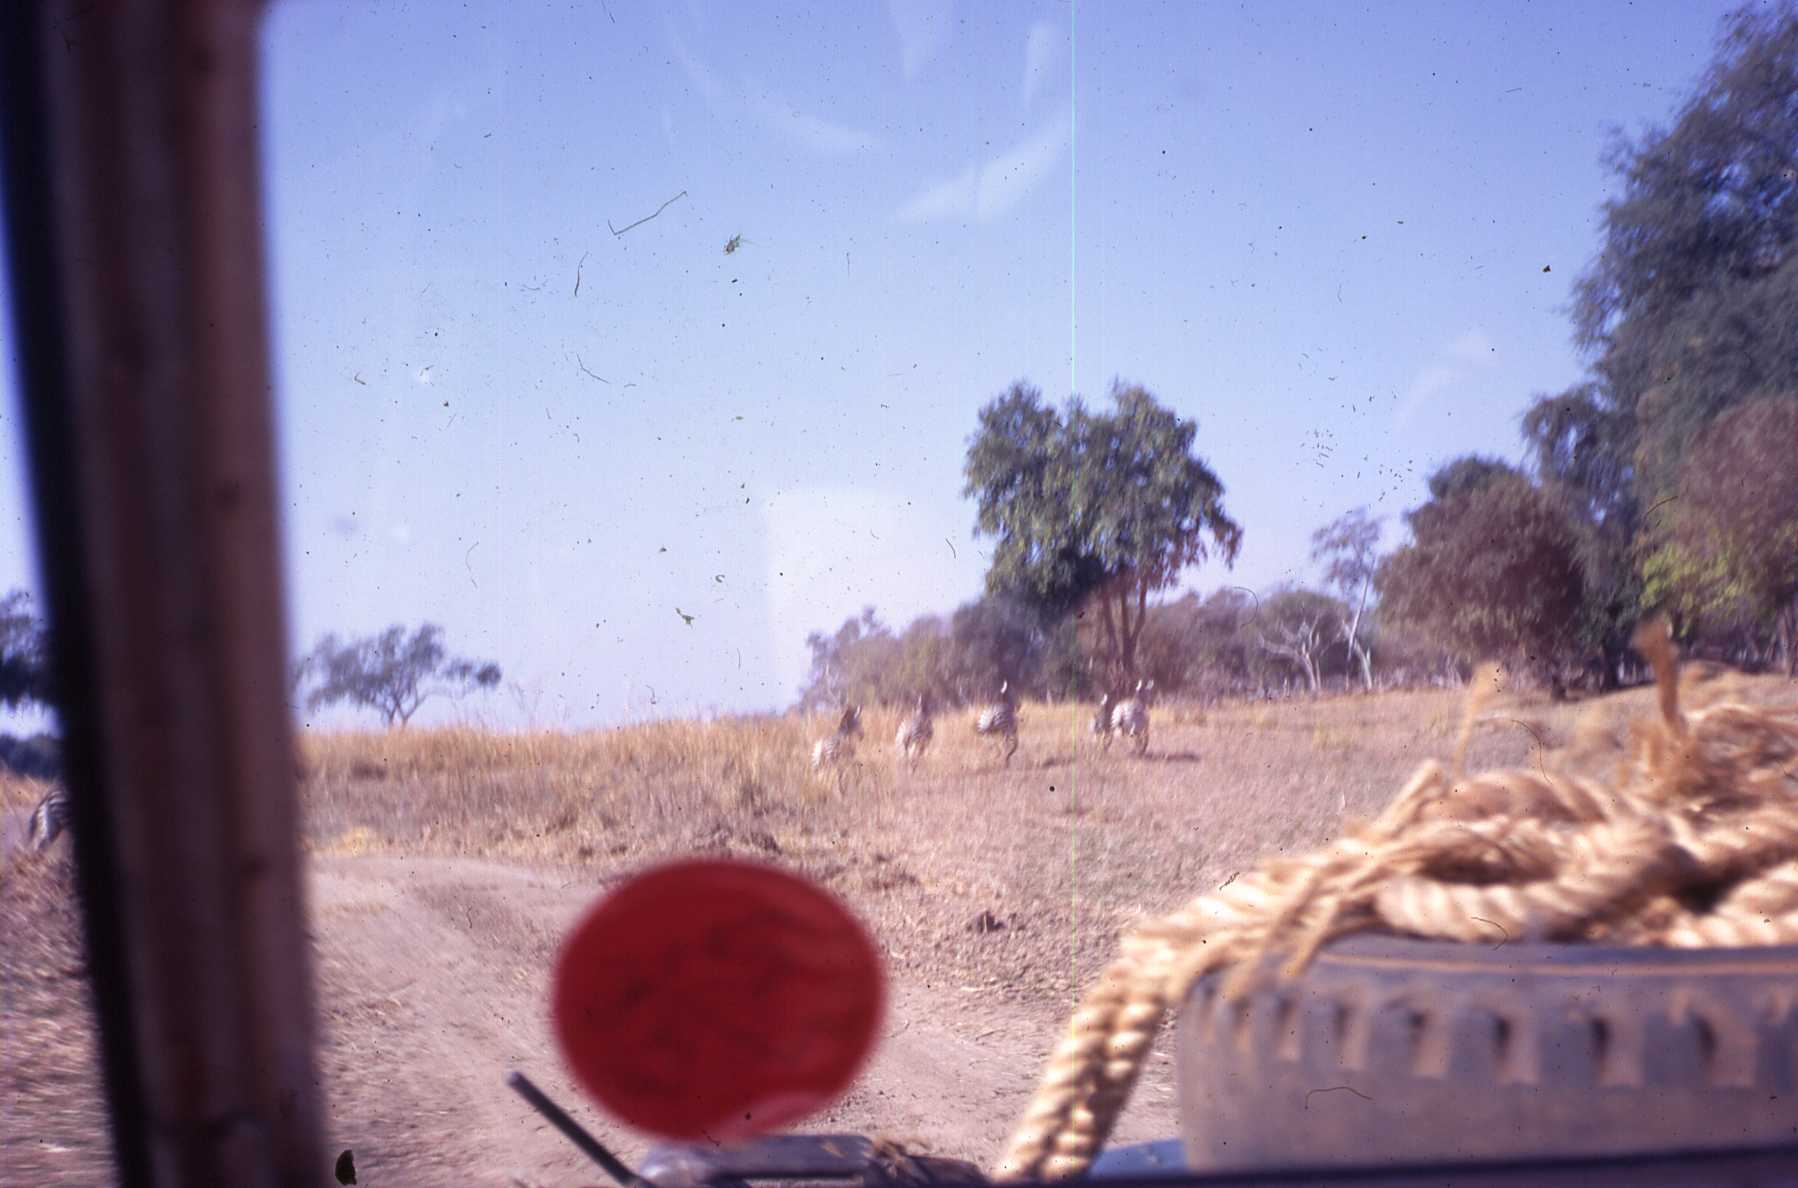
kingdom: Animalia
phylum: Chordata
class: Mammalia
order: Perissodactyla
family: Equidae
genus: Equus
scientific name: Equus quagga
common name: Plains zebra
